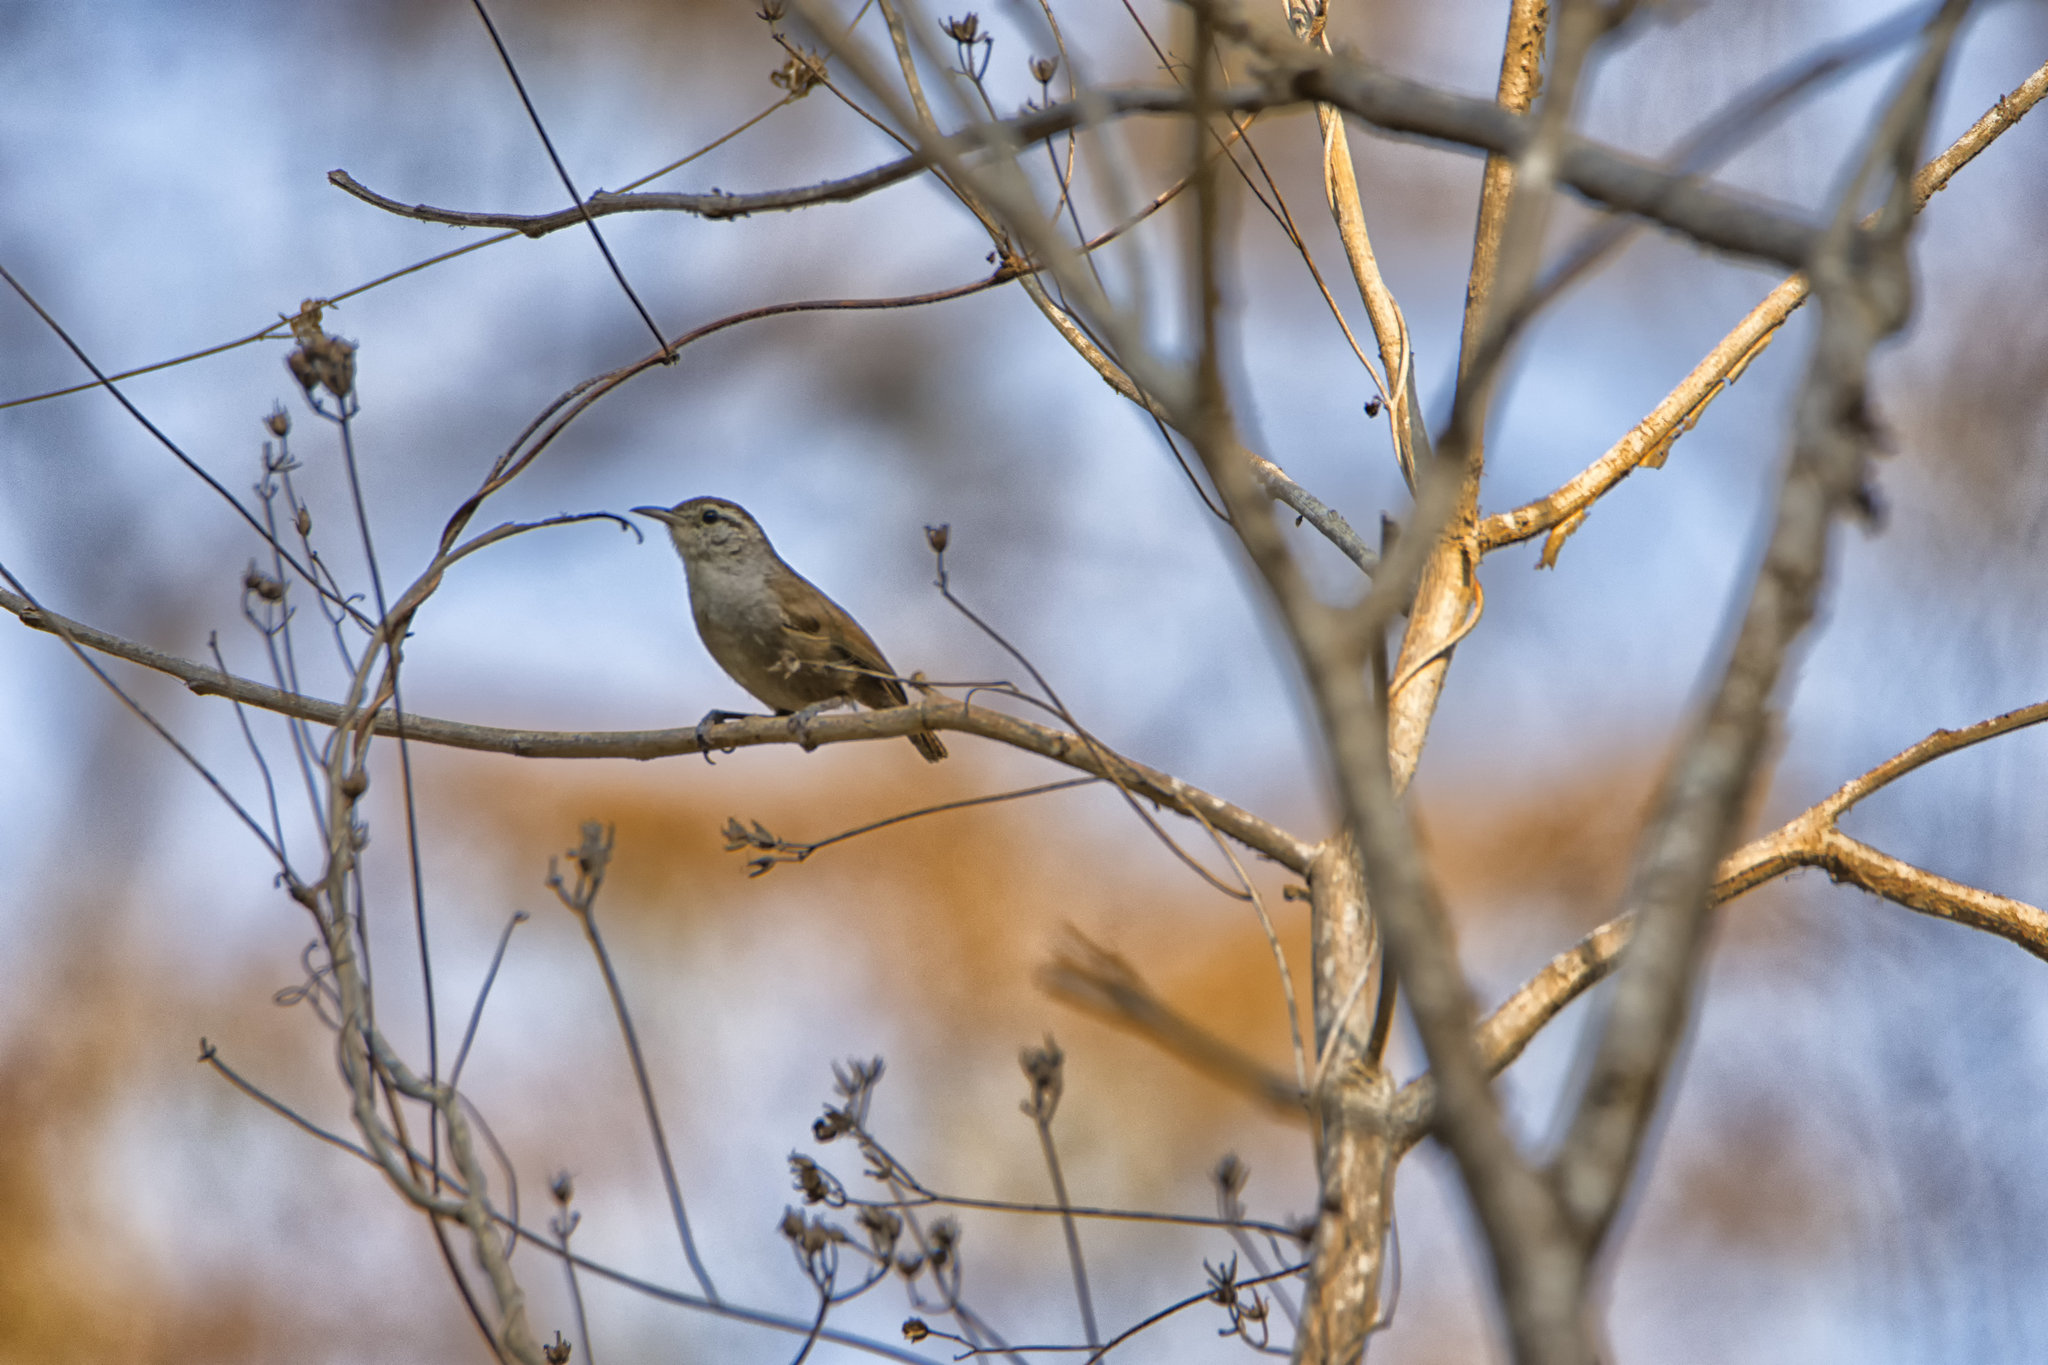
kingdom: Animalia
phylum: Chordata
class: Aves
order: Passeriformes
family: Troglodytidae
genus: Uropsila
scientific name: Uropsila leucogastra
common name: White-bellied wren
